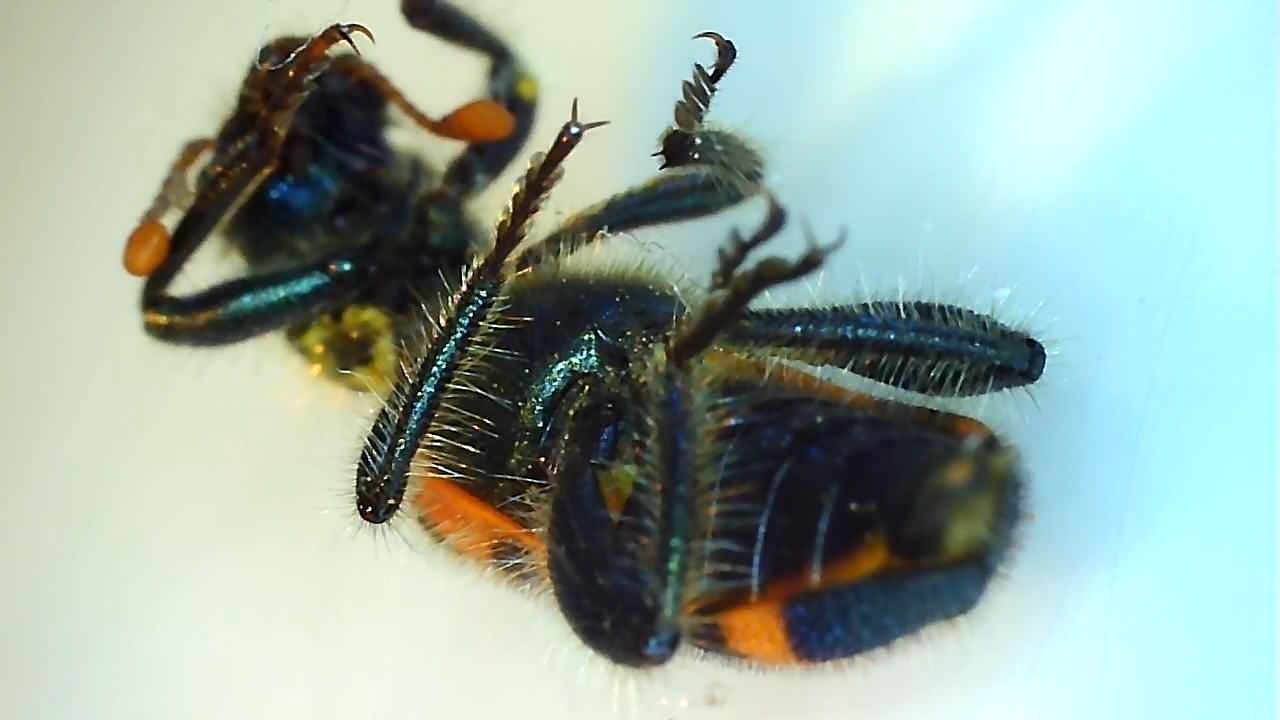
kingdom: Animalia
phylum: Arthropoda
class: Insecta
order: Coleoptera
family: Cleridae
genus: Trichodes
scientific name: Trichodes leucopsideus
